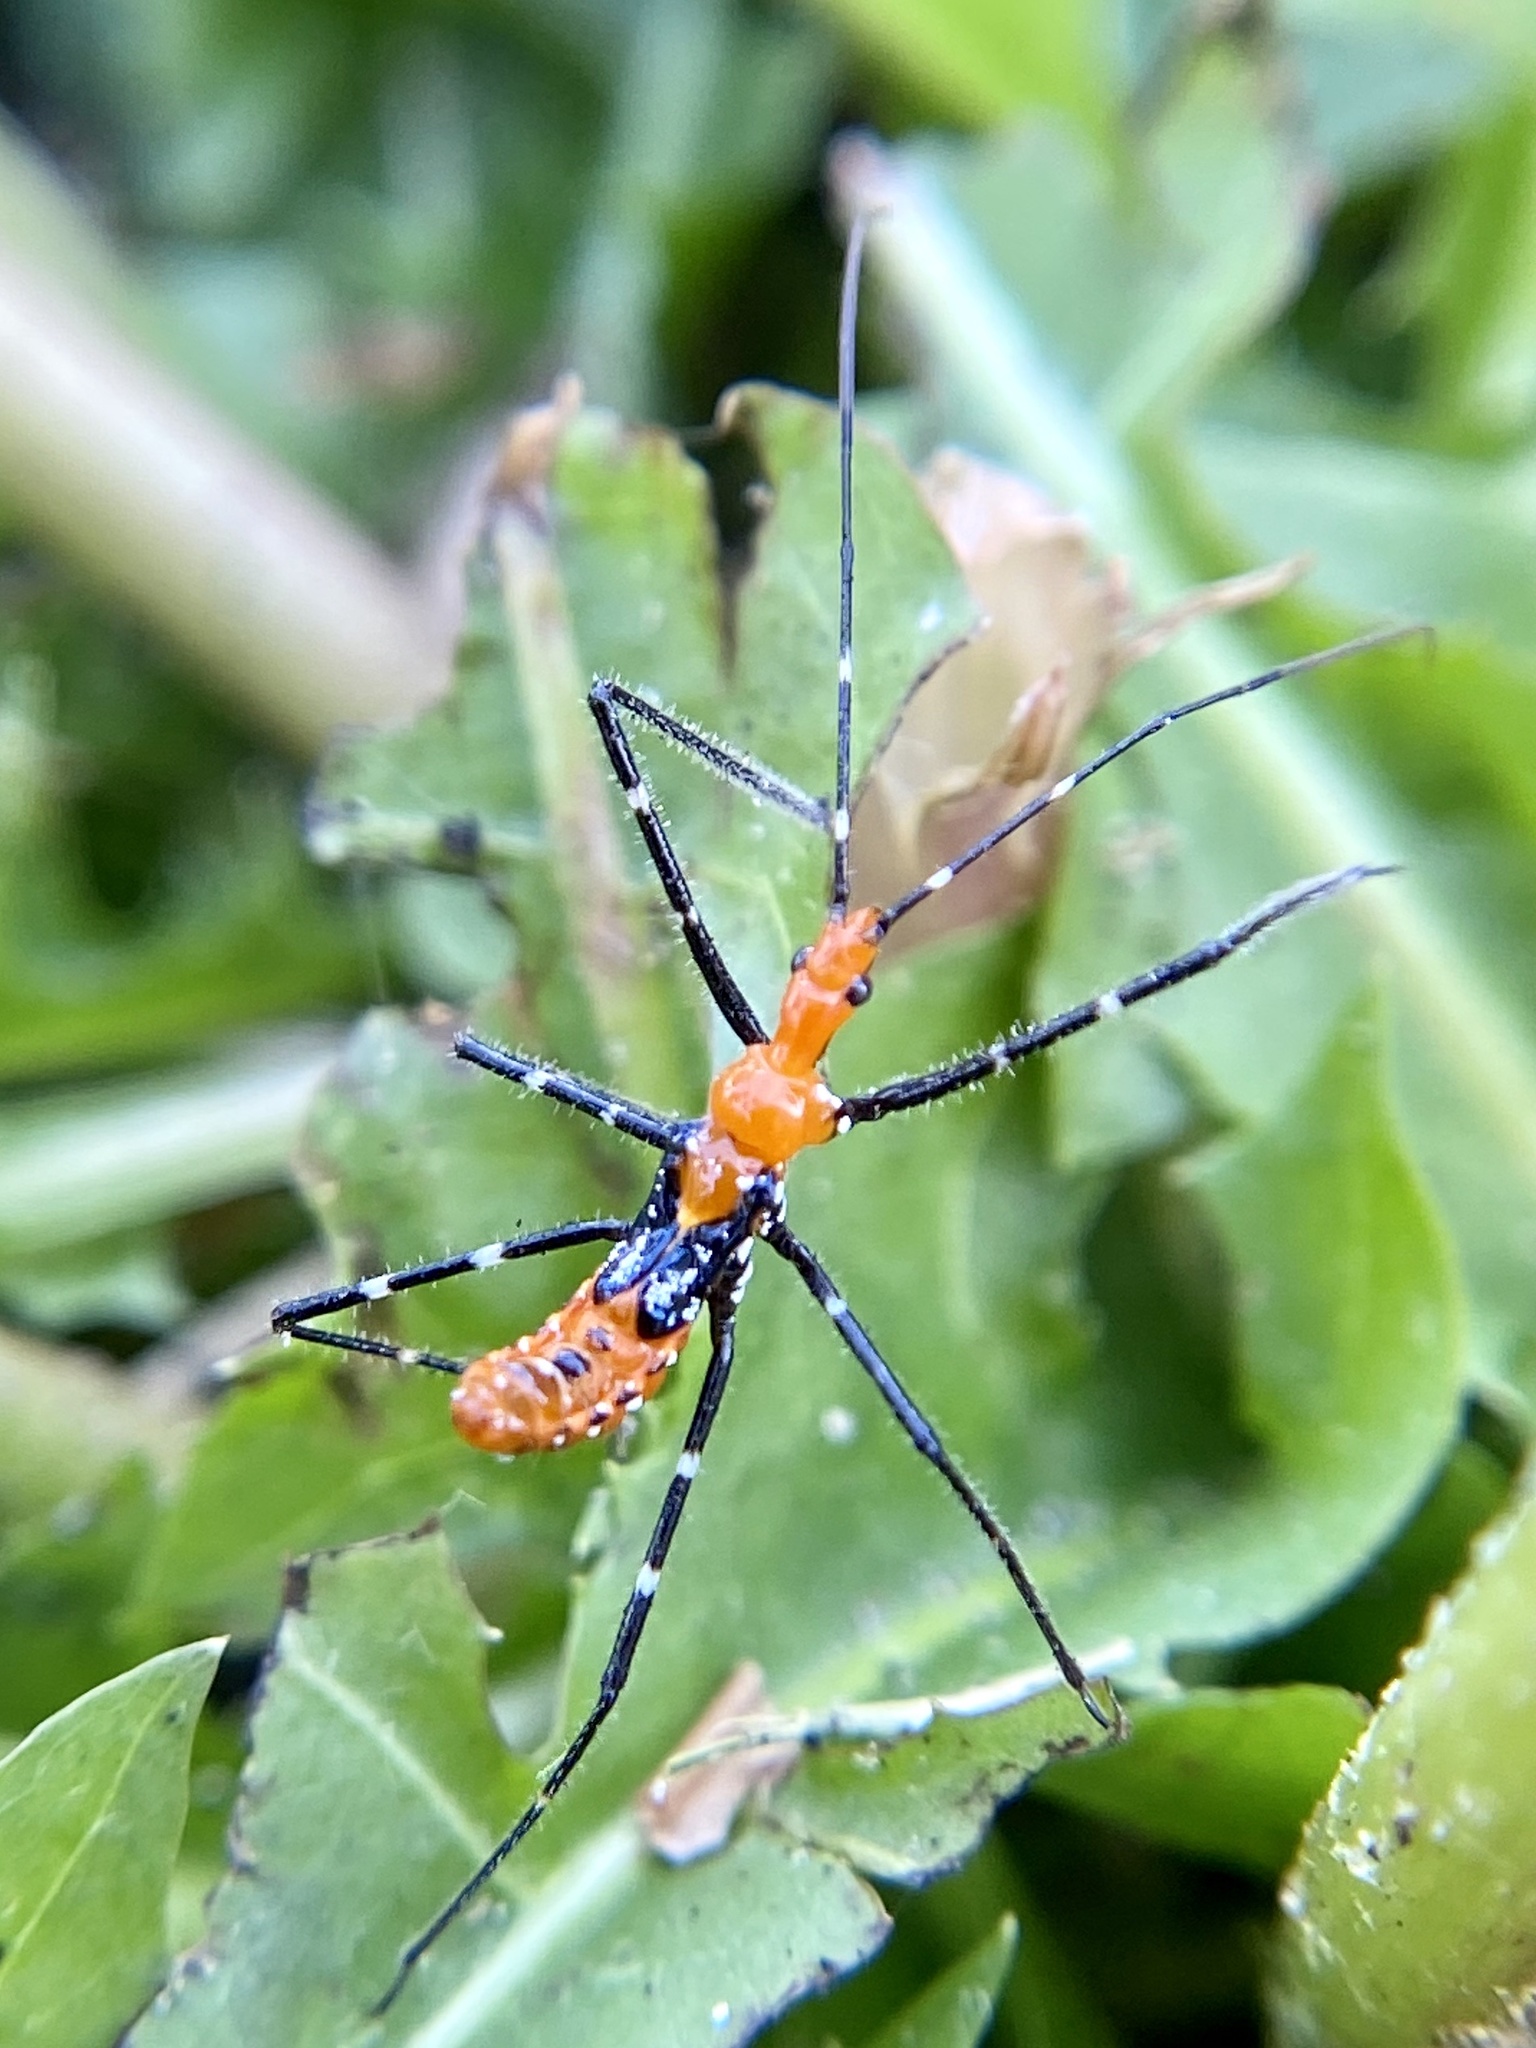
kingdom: Animalia
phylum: Arthropoda
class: Insecta
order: Hemiptera
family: Reduviidae
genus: Zelus
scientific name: Zelus longipes
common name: Milkweed assassin bug
